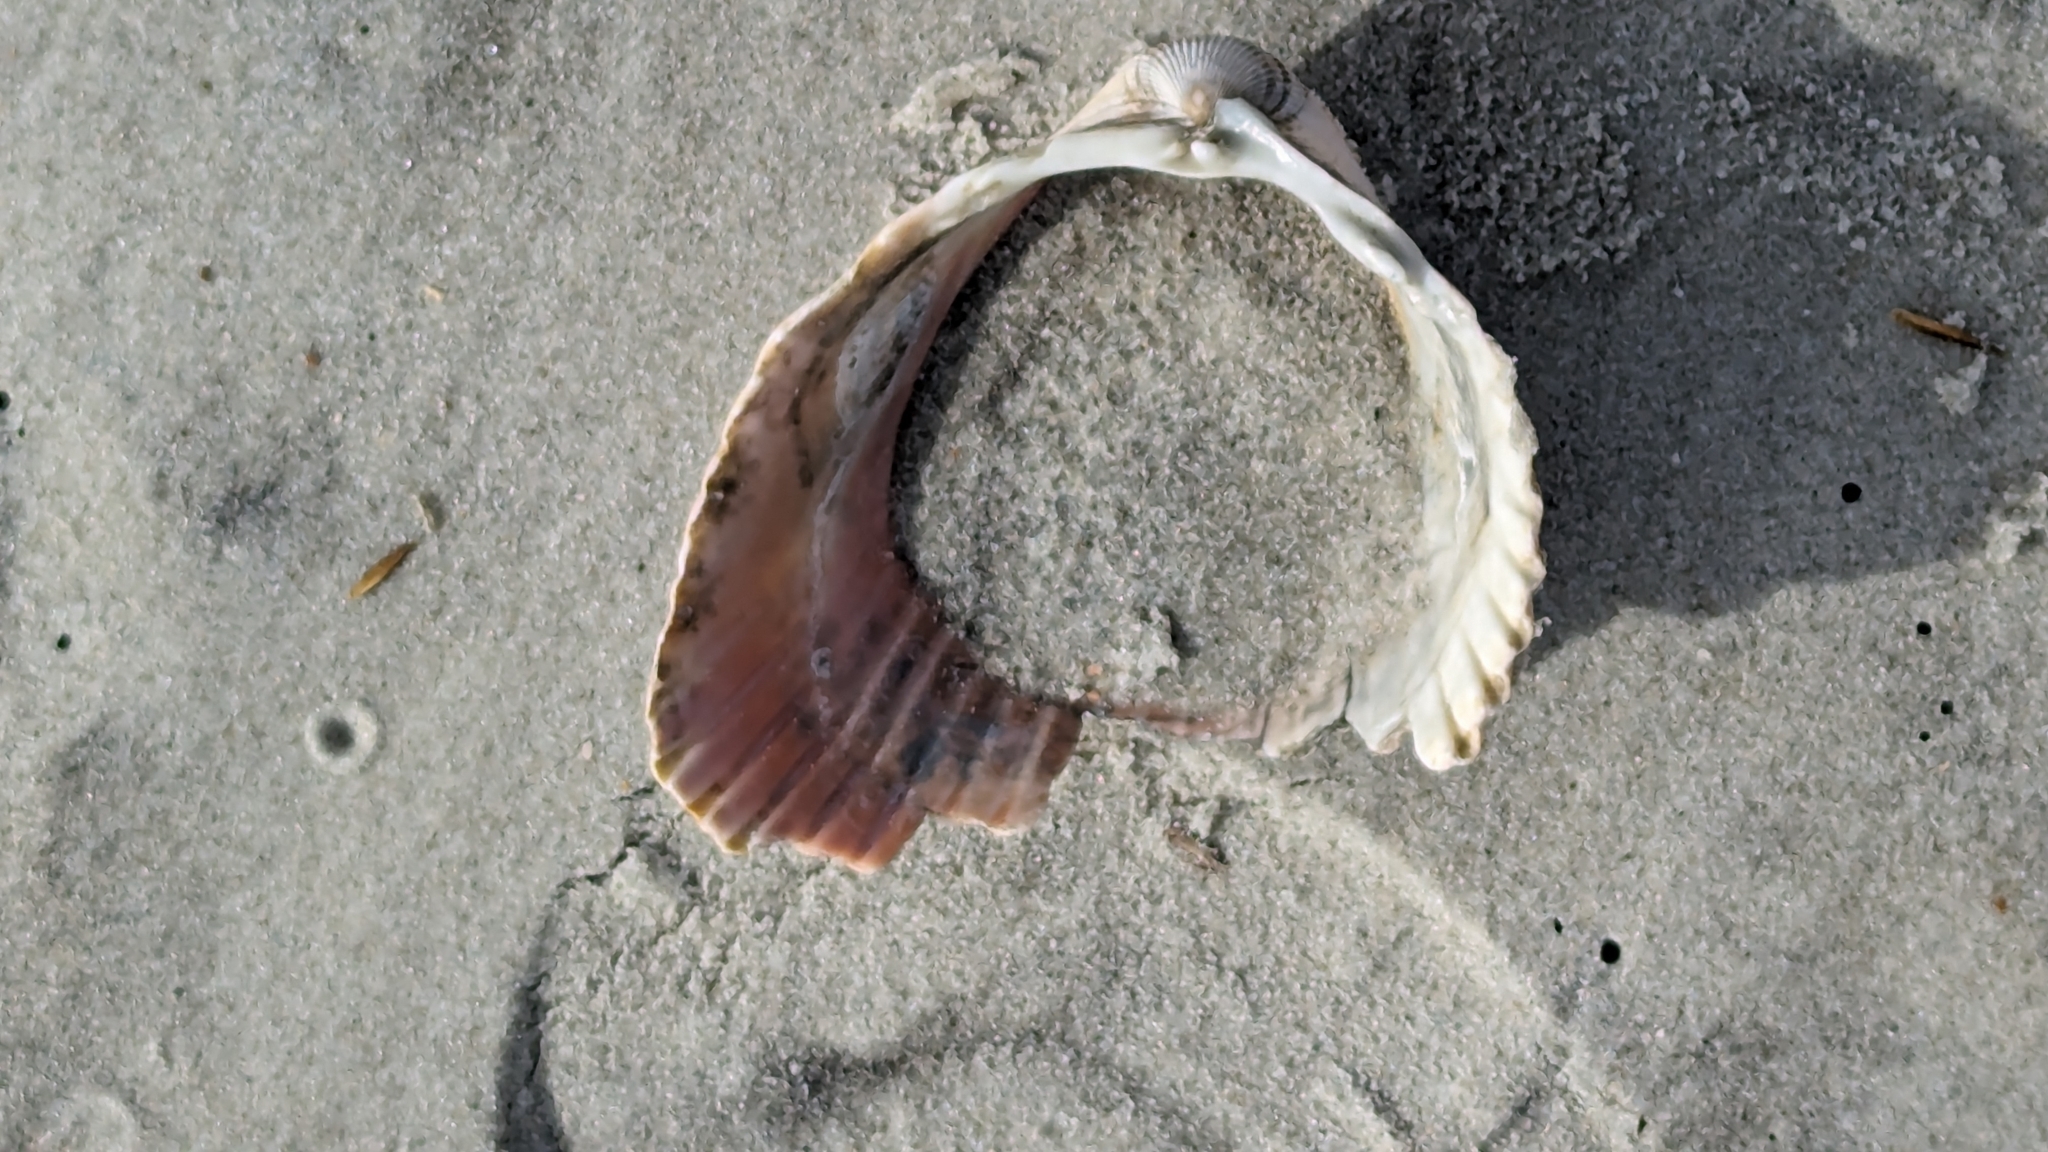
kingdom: Animalia
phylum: Mollusca
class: Bivalvia
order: Cardiida
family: Cardiidae
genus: Dinocardium
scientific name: Dinocardium robustum
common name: Atlantic giant cockle
